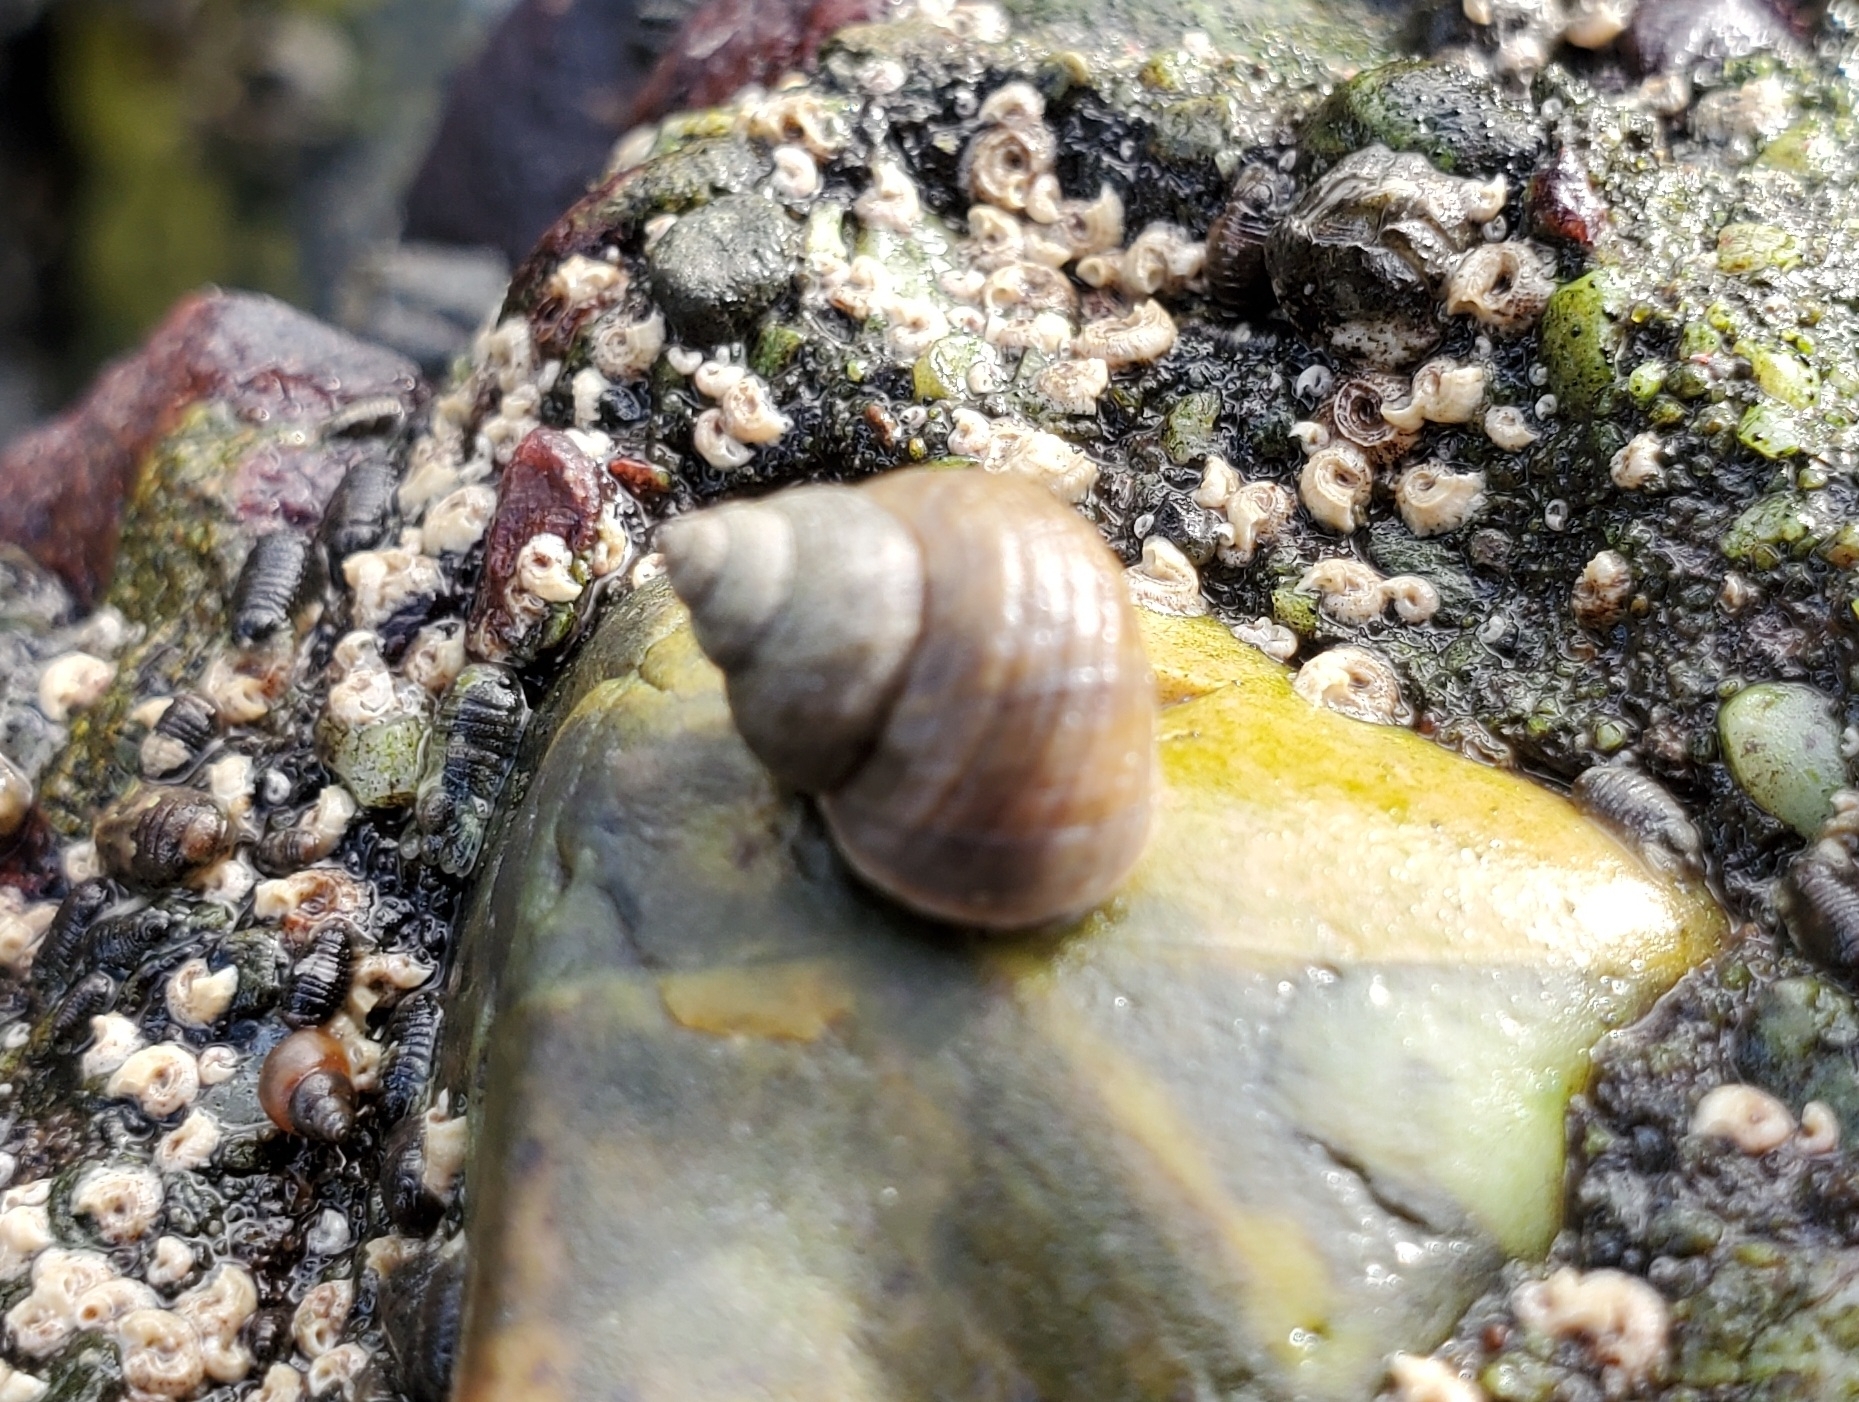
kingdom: Animalia
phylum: Mollusca
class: Gastropoda
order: Littorinimorpha
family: Littorinidae
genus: Littorina
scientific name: Littorina saxatilis
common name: Black-lined periwinkle
